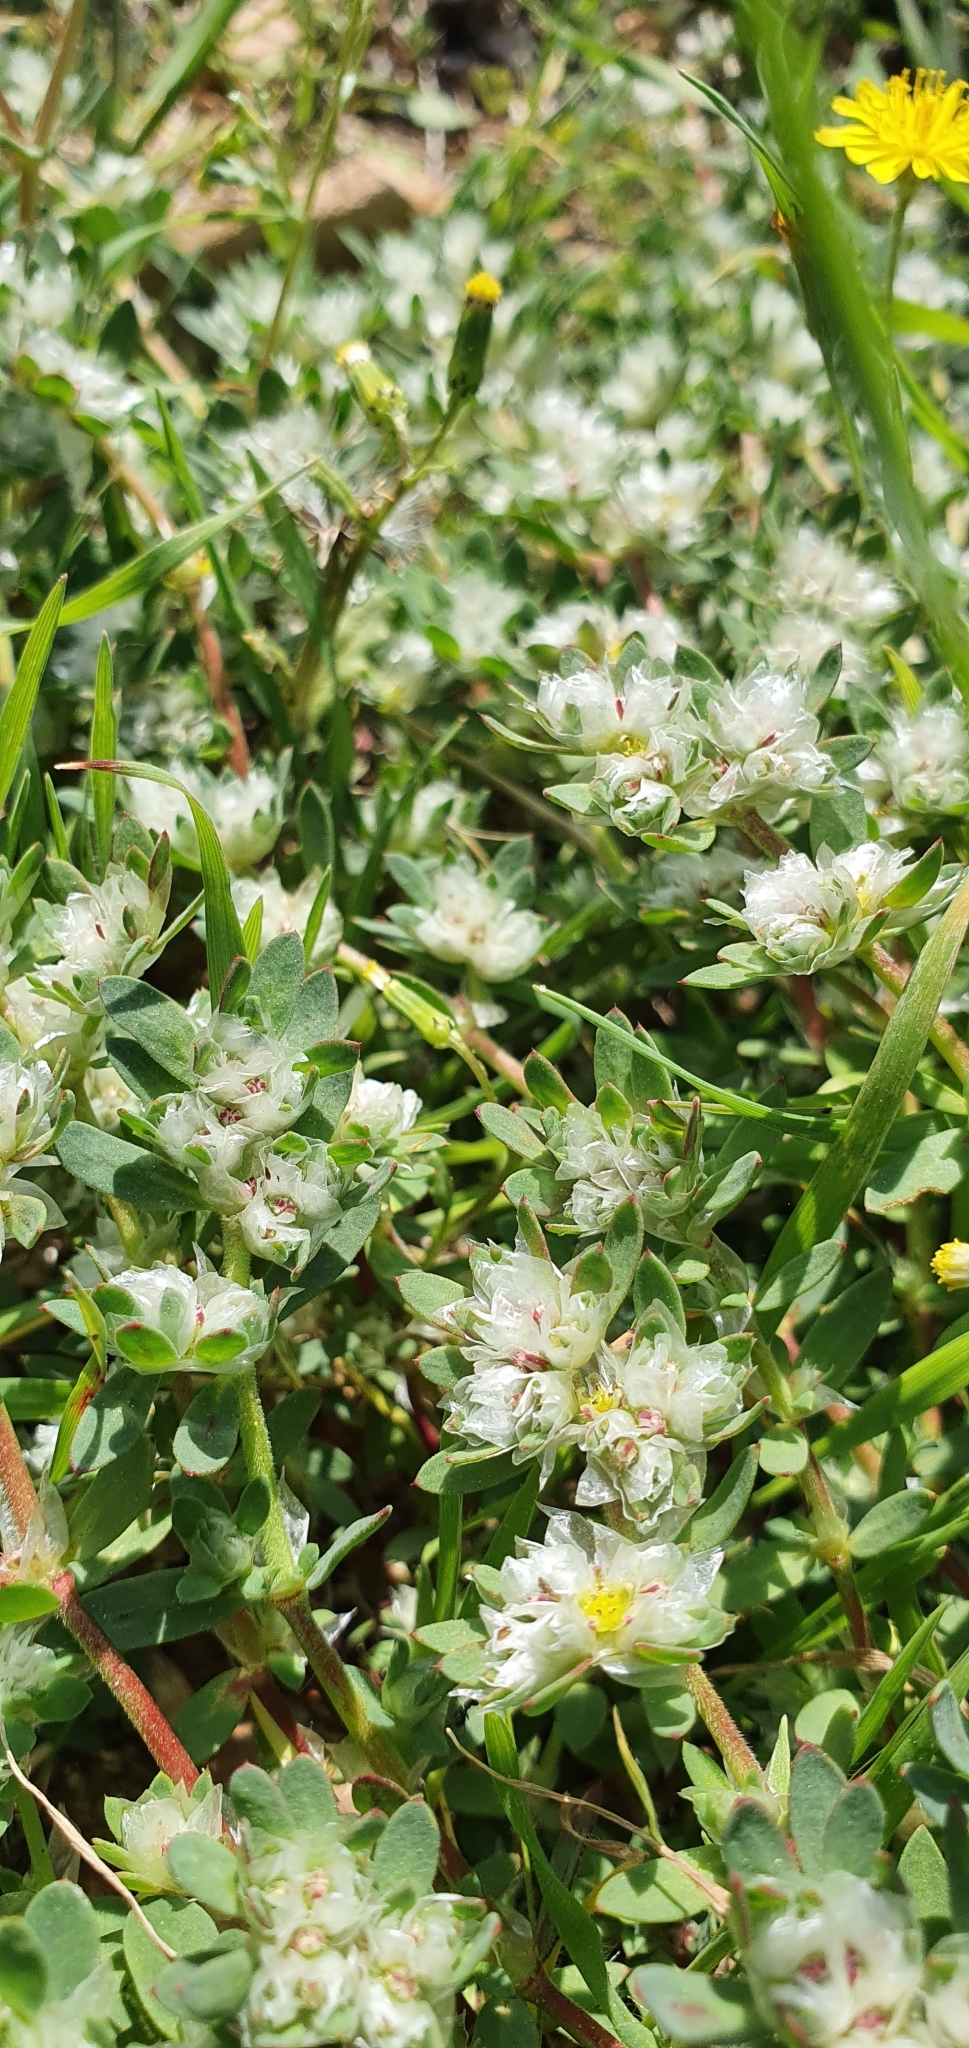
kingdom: Plantae
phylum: Tracheophyta
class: Magnoliopsida
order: Caryophyllales
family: Caryophyllaceae
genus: Paronychia
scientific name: Paronychia argentea
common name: Silver nailroot
